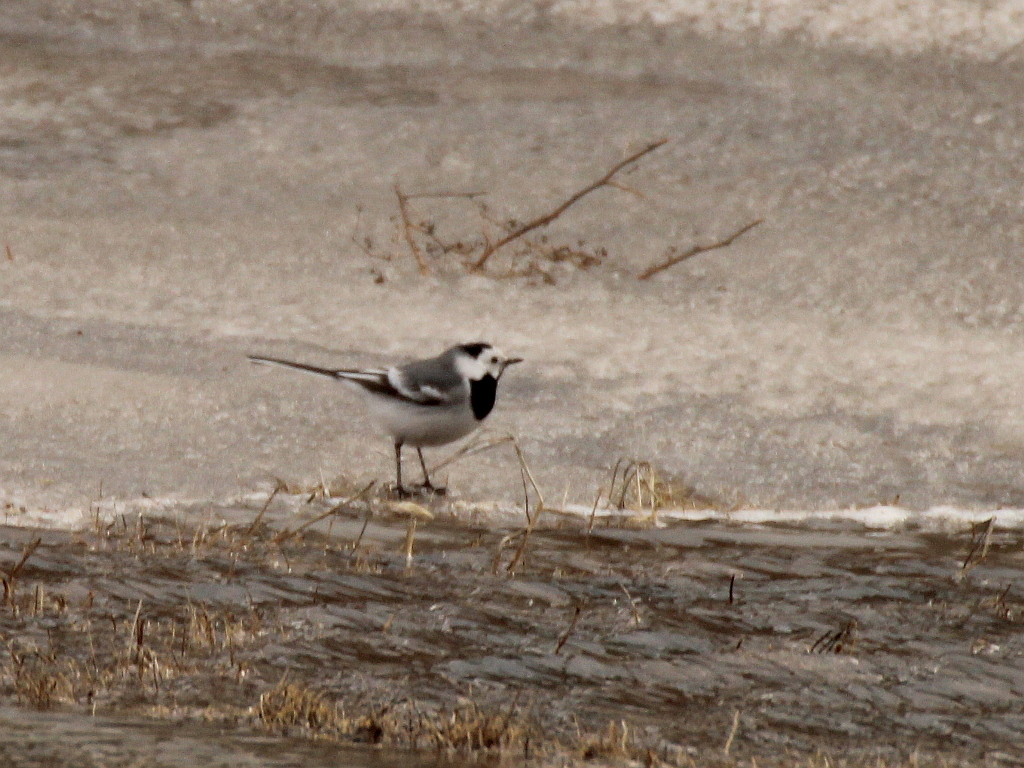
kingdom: Animalia
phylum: Chordata
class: Aves
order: Passeriformes
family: Motacillidae
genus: Motacilla
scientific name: Motacilla alba
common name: White wagtail
